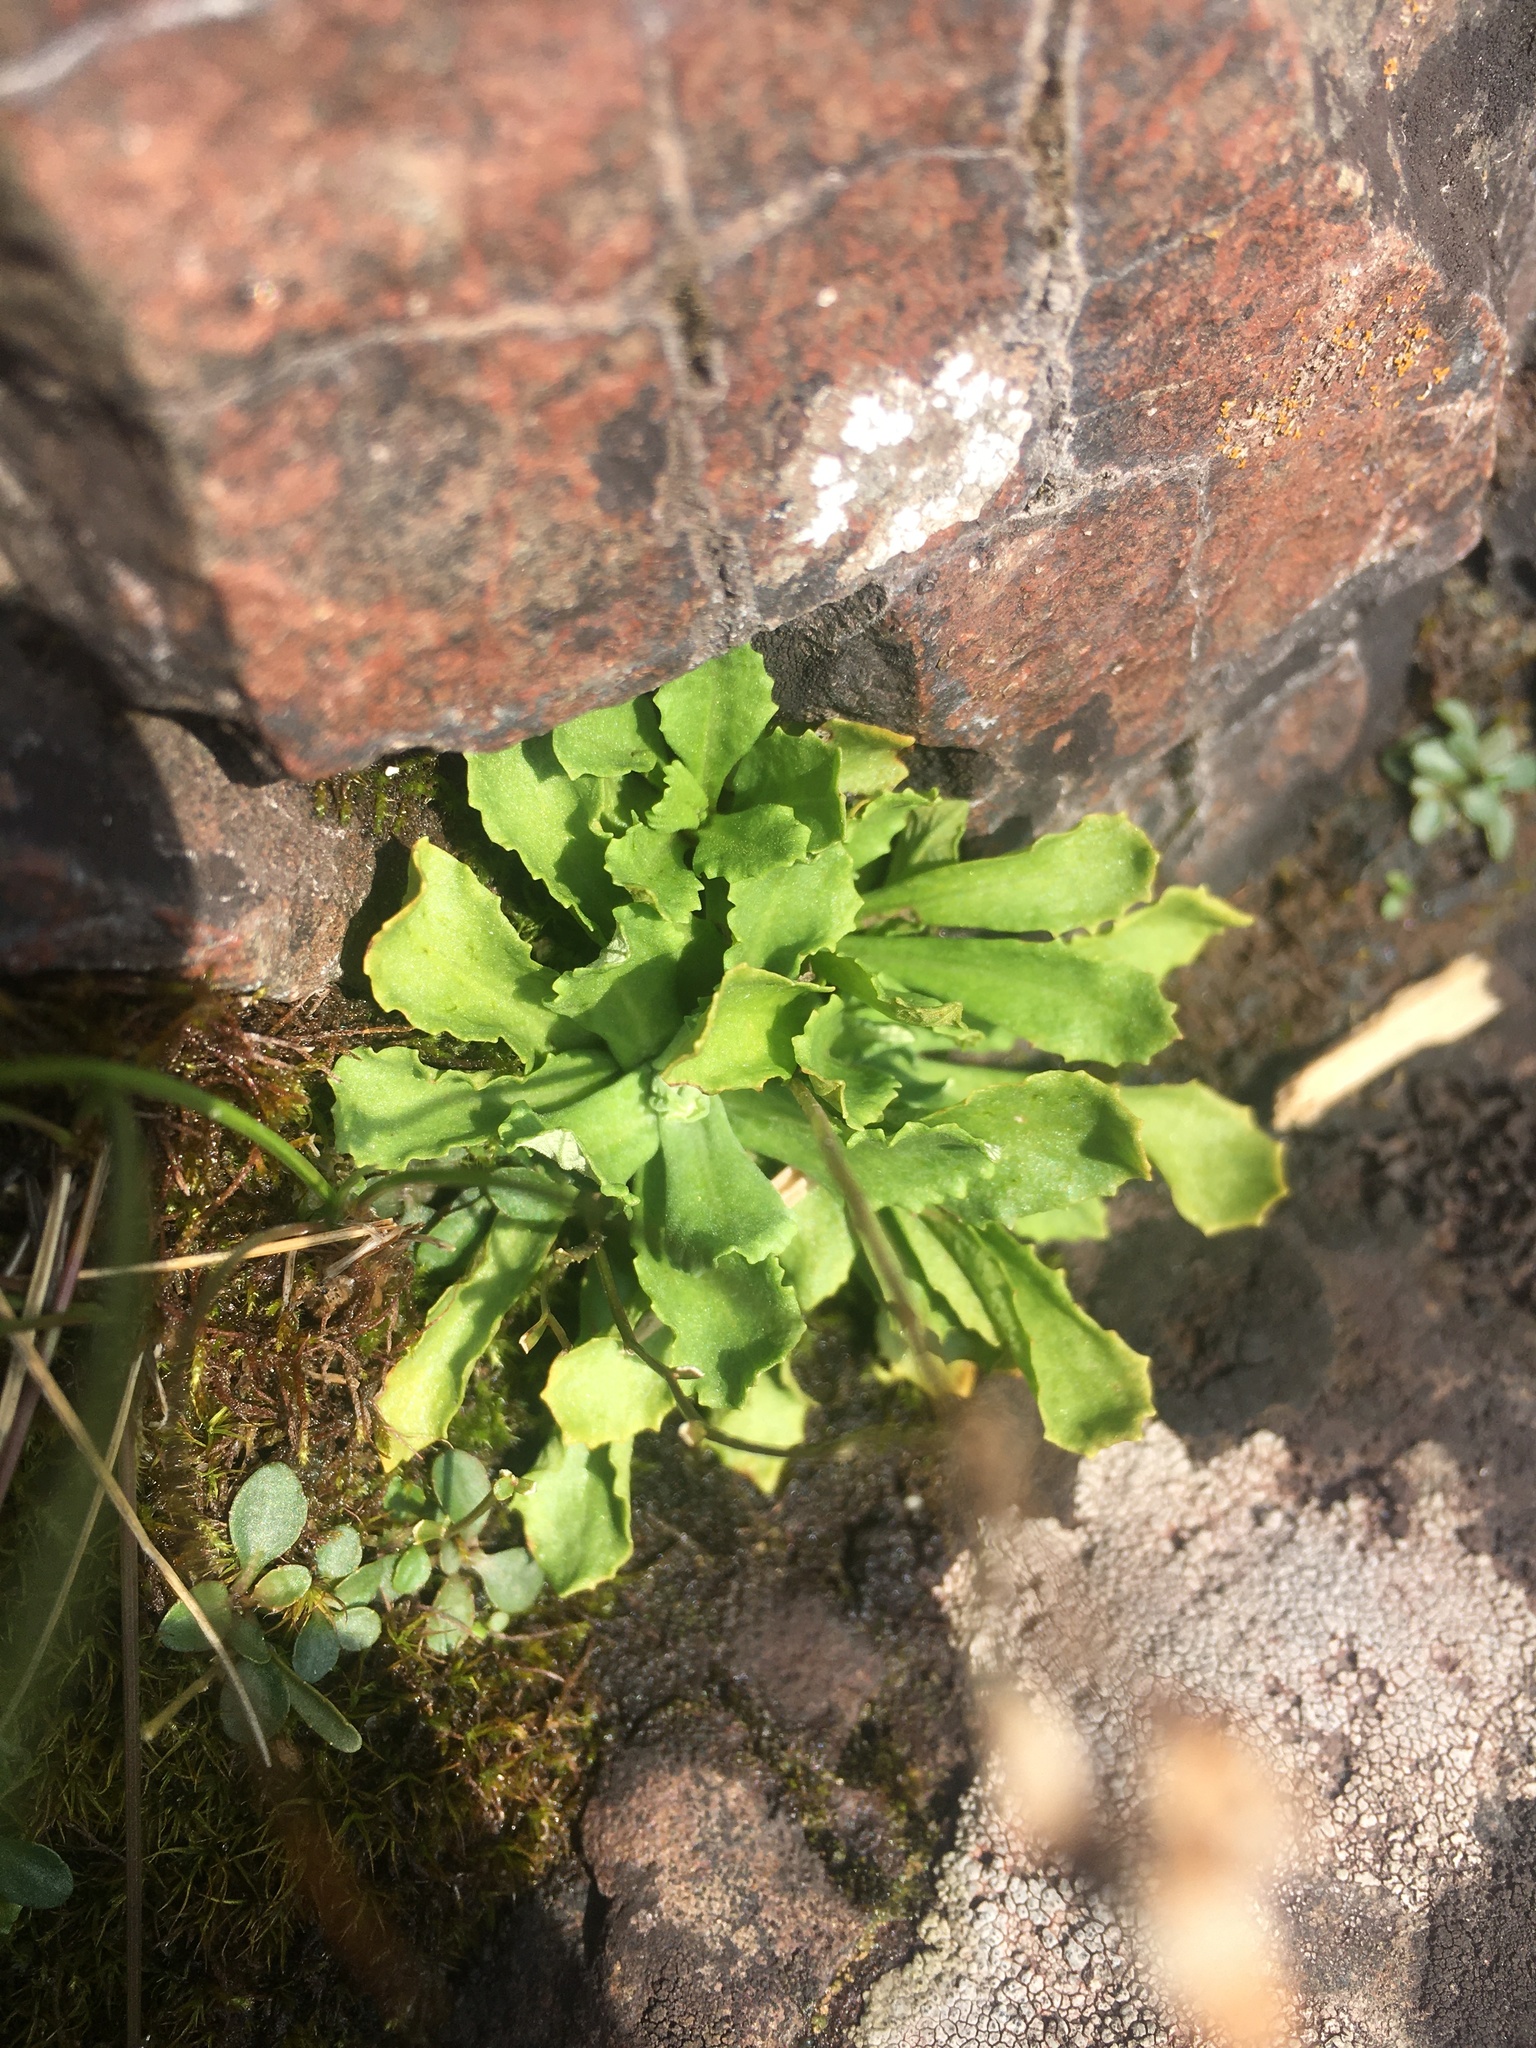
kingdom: Plantae
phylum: Tracheophyta
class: Magnoliopsida
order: Ericales
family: Primulaceae
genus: Primula
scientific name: Primula mistassinica
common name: Bird's-eye primrose
